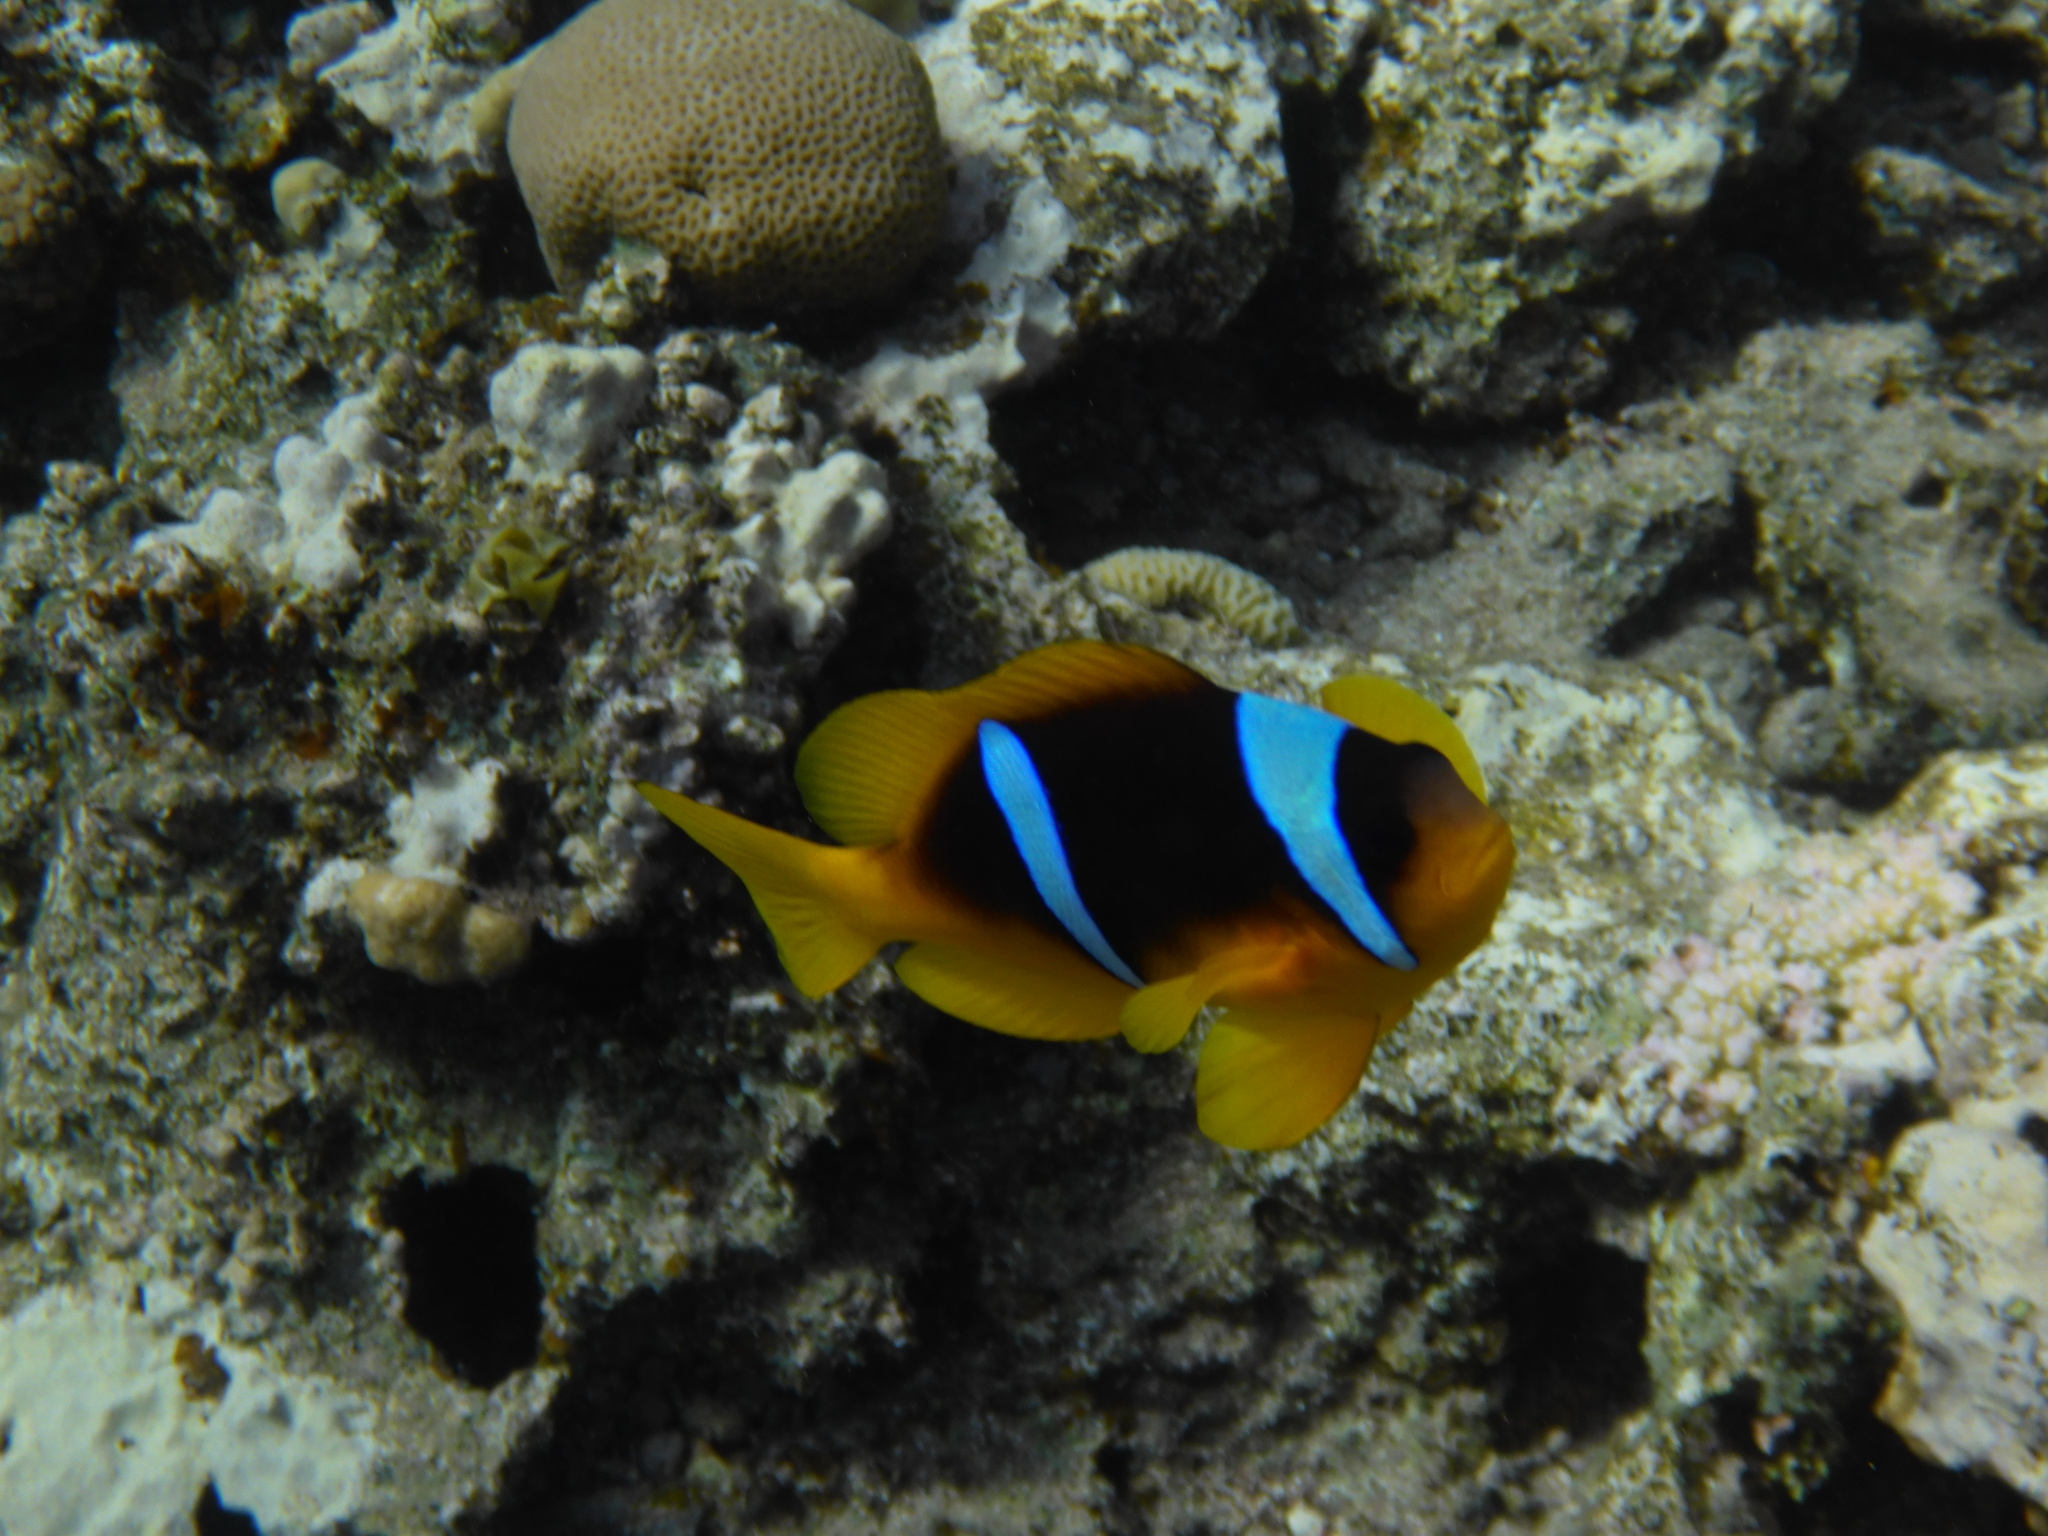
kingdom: Animalia
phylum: Chordata
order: Perciformes
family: Pomacentridae
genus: Amphiprion
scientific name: Amphiprion bicinctus
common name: Two-banded anemonefish
